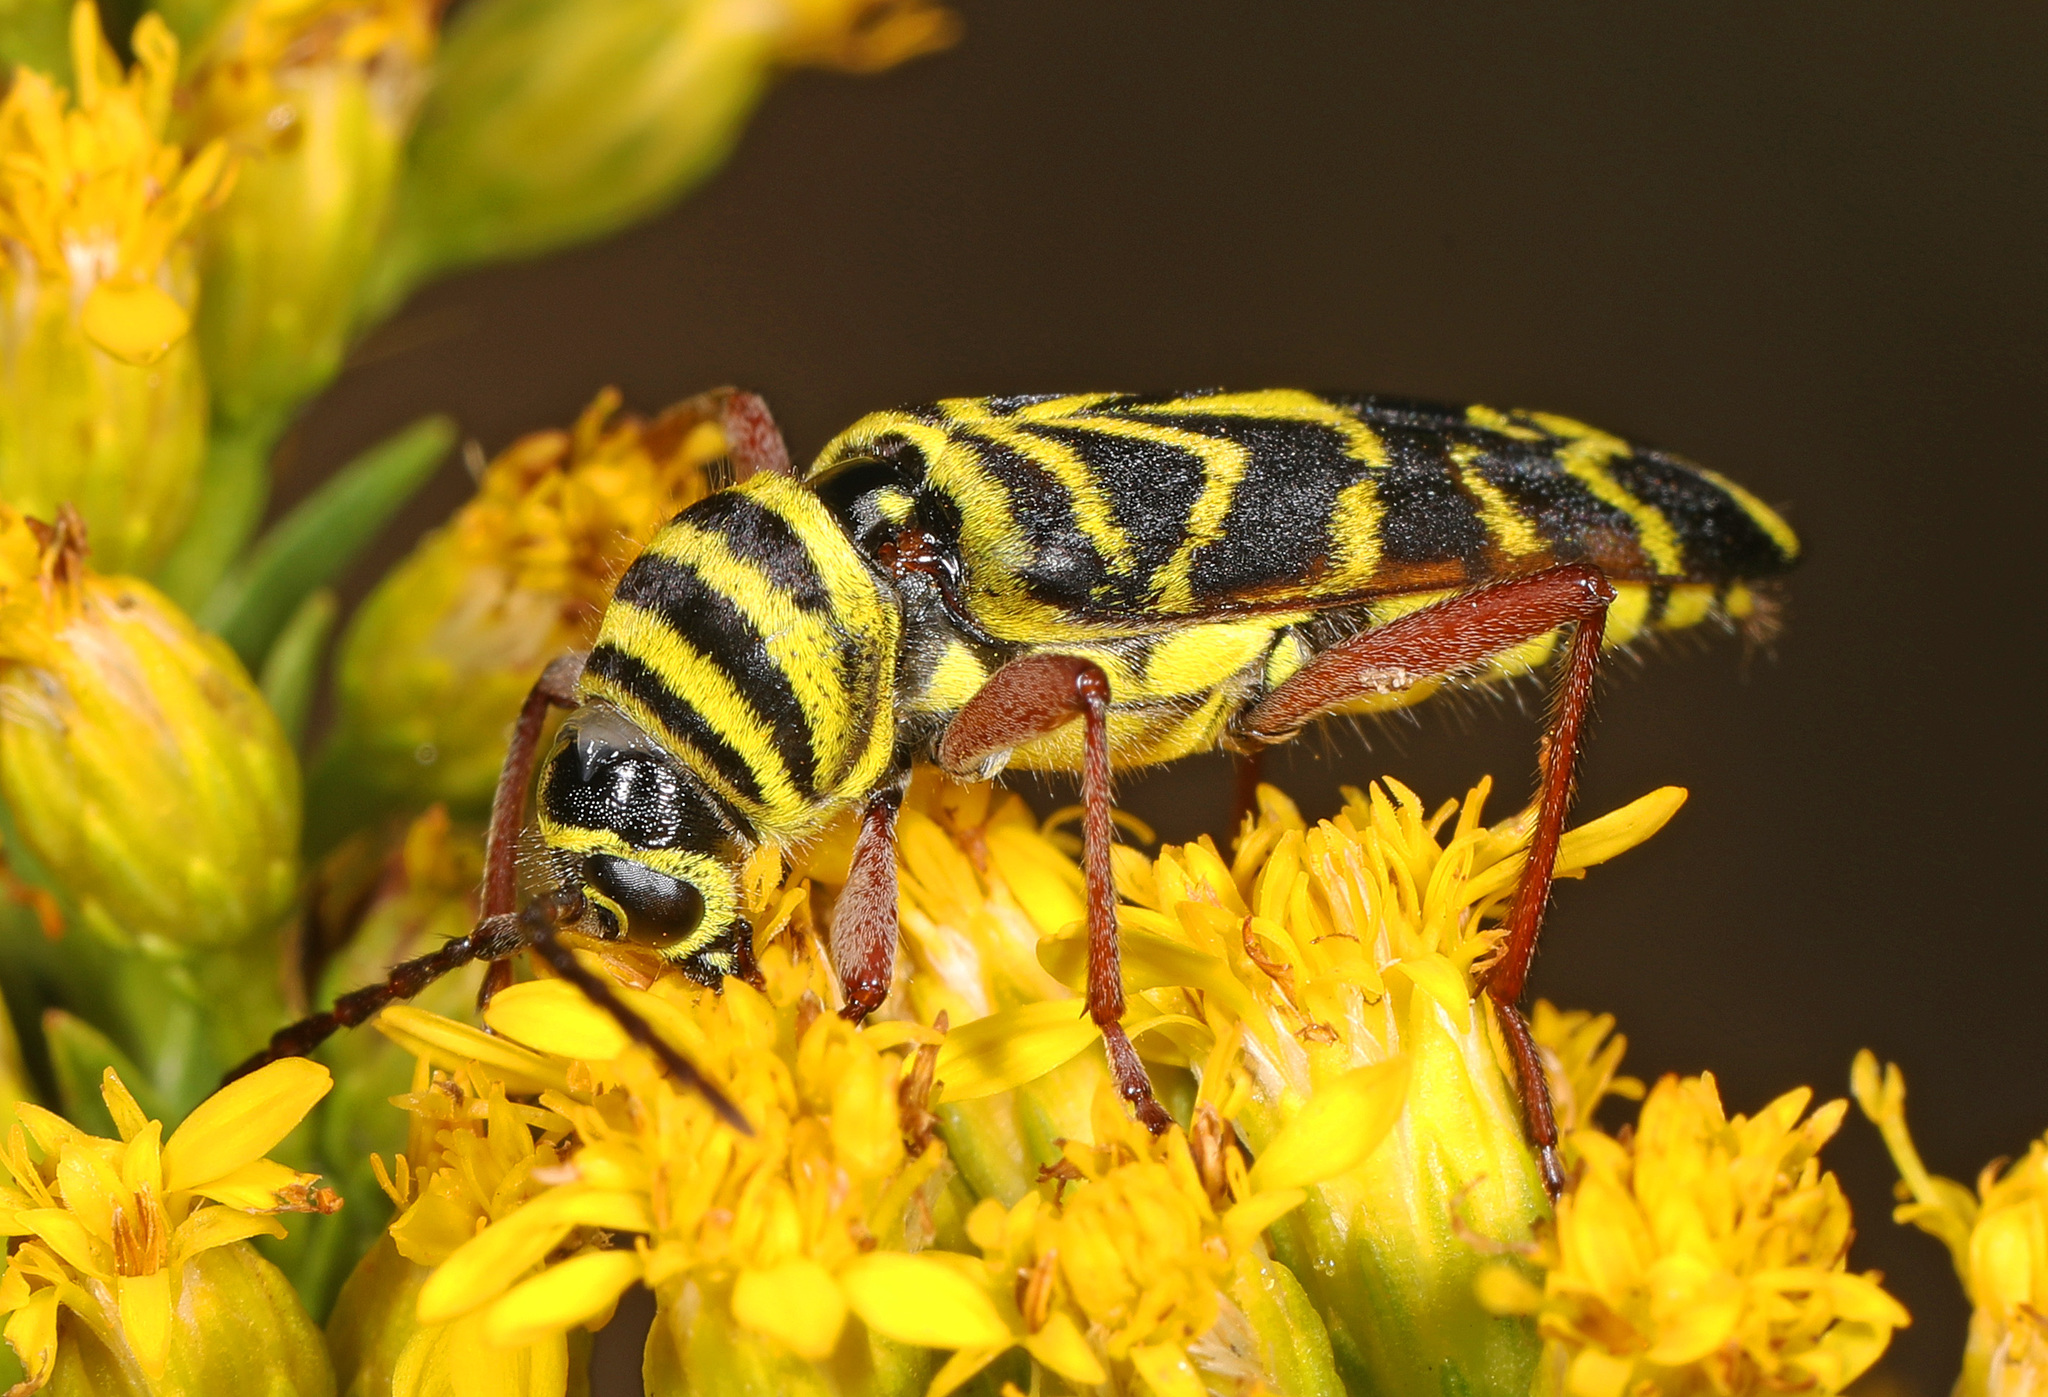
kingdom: Animalia
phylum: Arthropoda
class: Insecta
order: Coleoptera
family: Cerambycidae
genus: Megacyllene
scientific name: Megacyllene robiniae
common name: Locust borer
